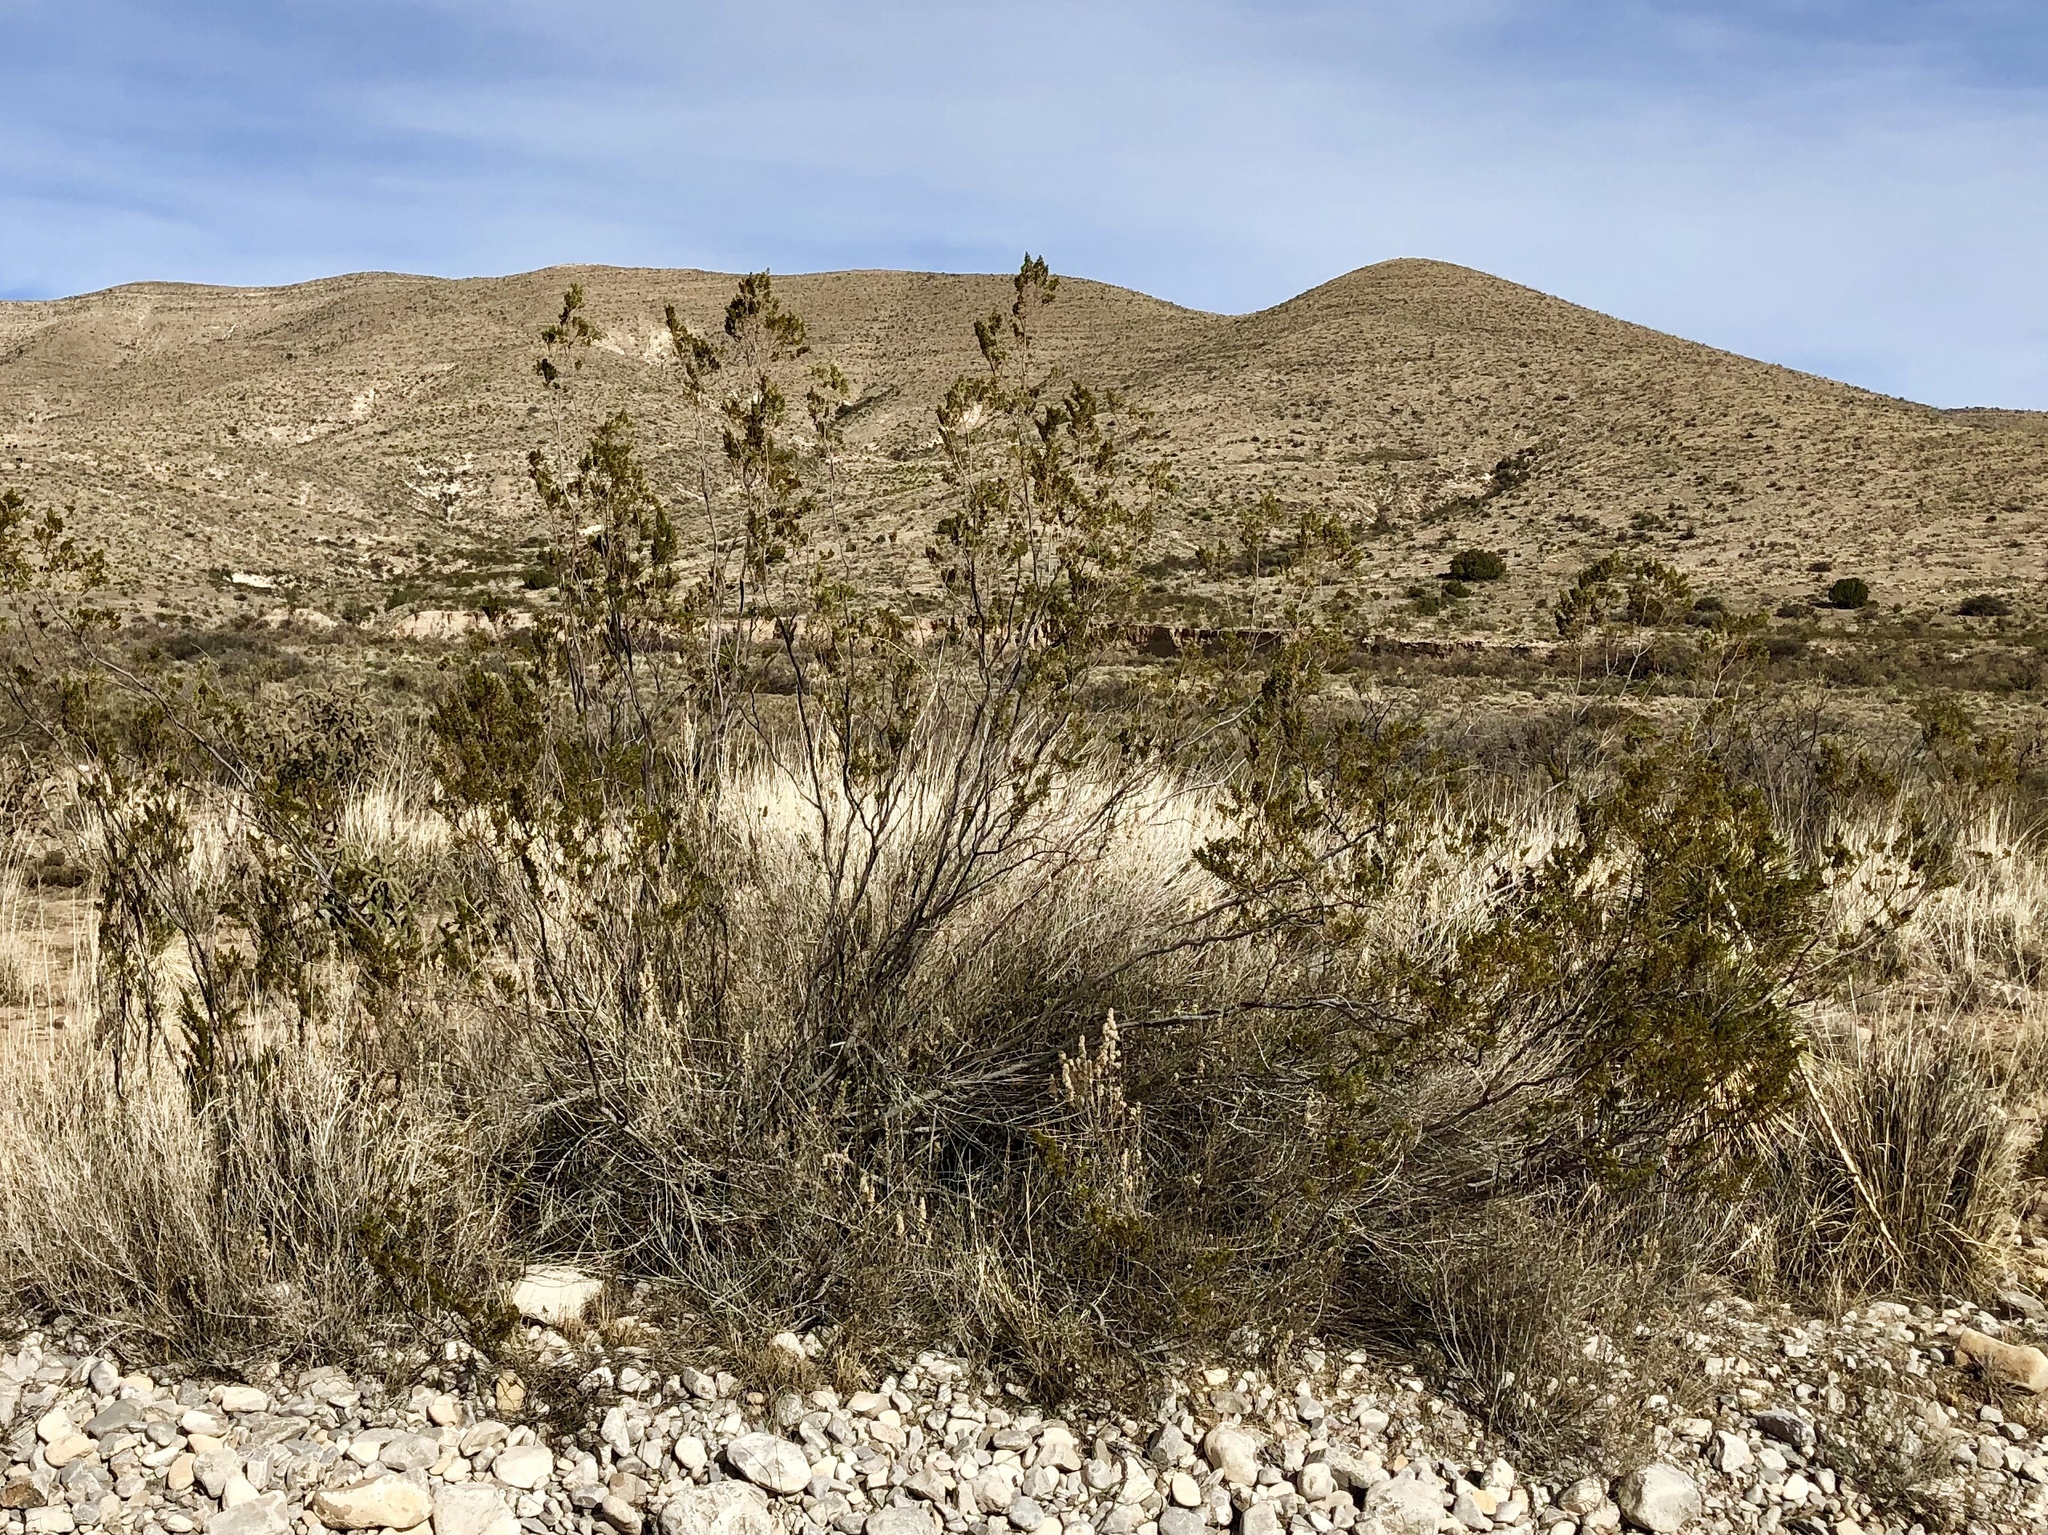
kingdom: Plantae
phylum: Tracheophyta
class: Magnoliopsida
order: Zygophyllales
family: Zygophyllaceae
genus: Larrea
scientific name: Larrea tridentata
